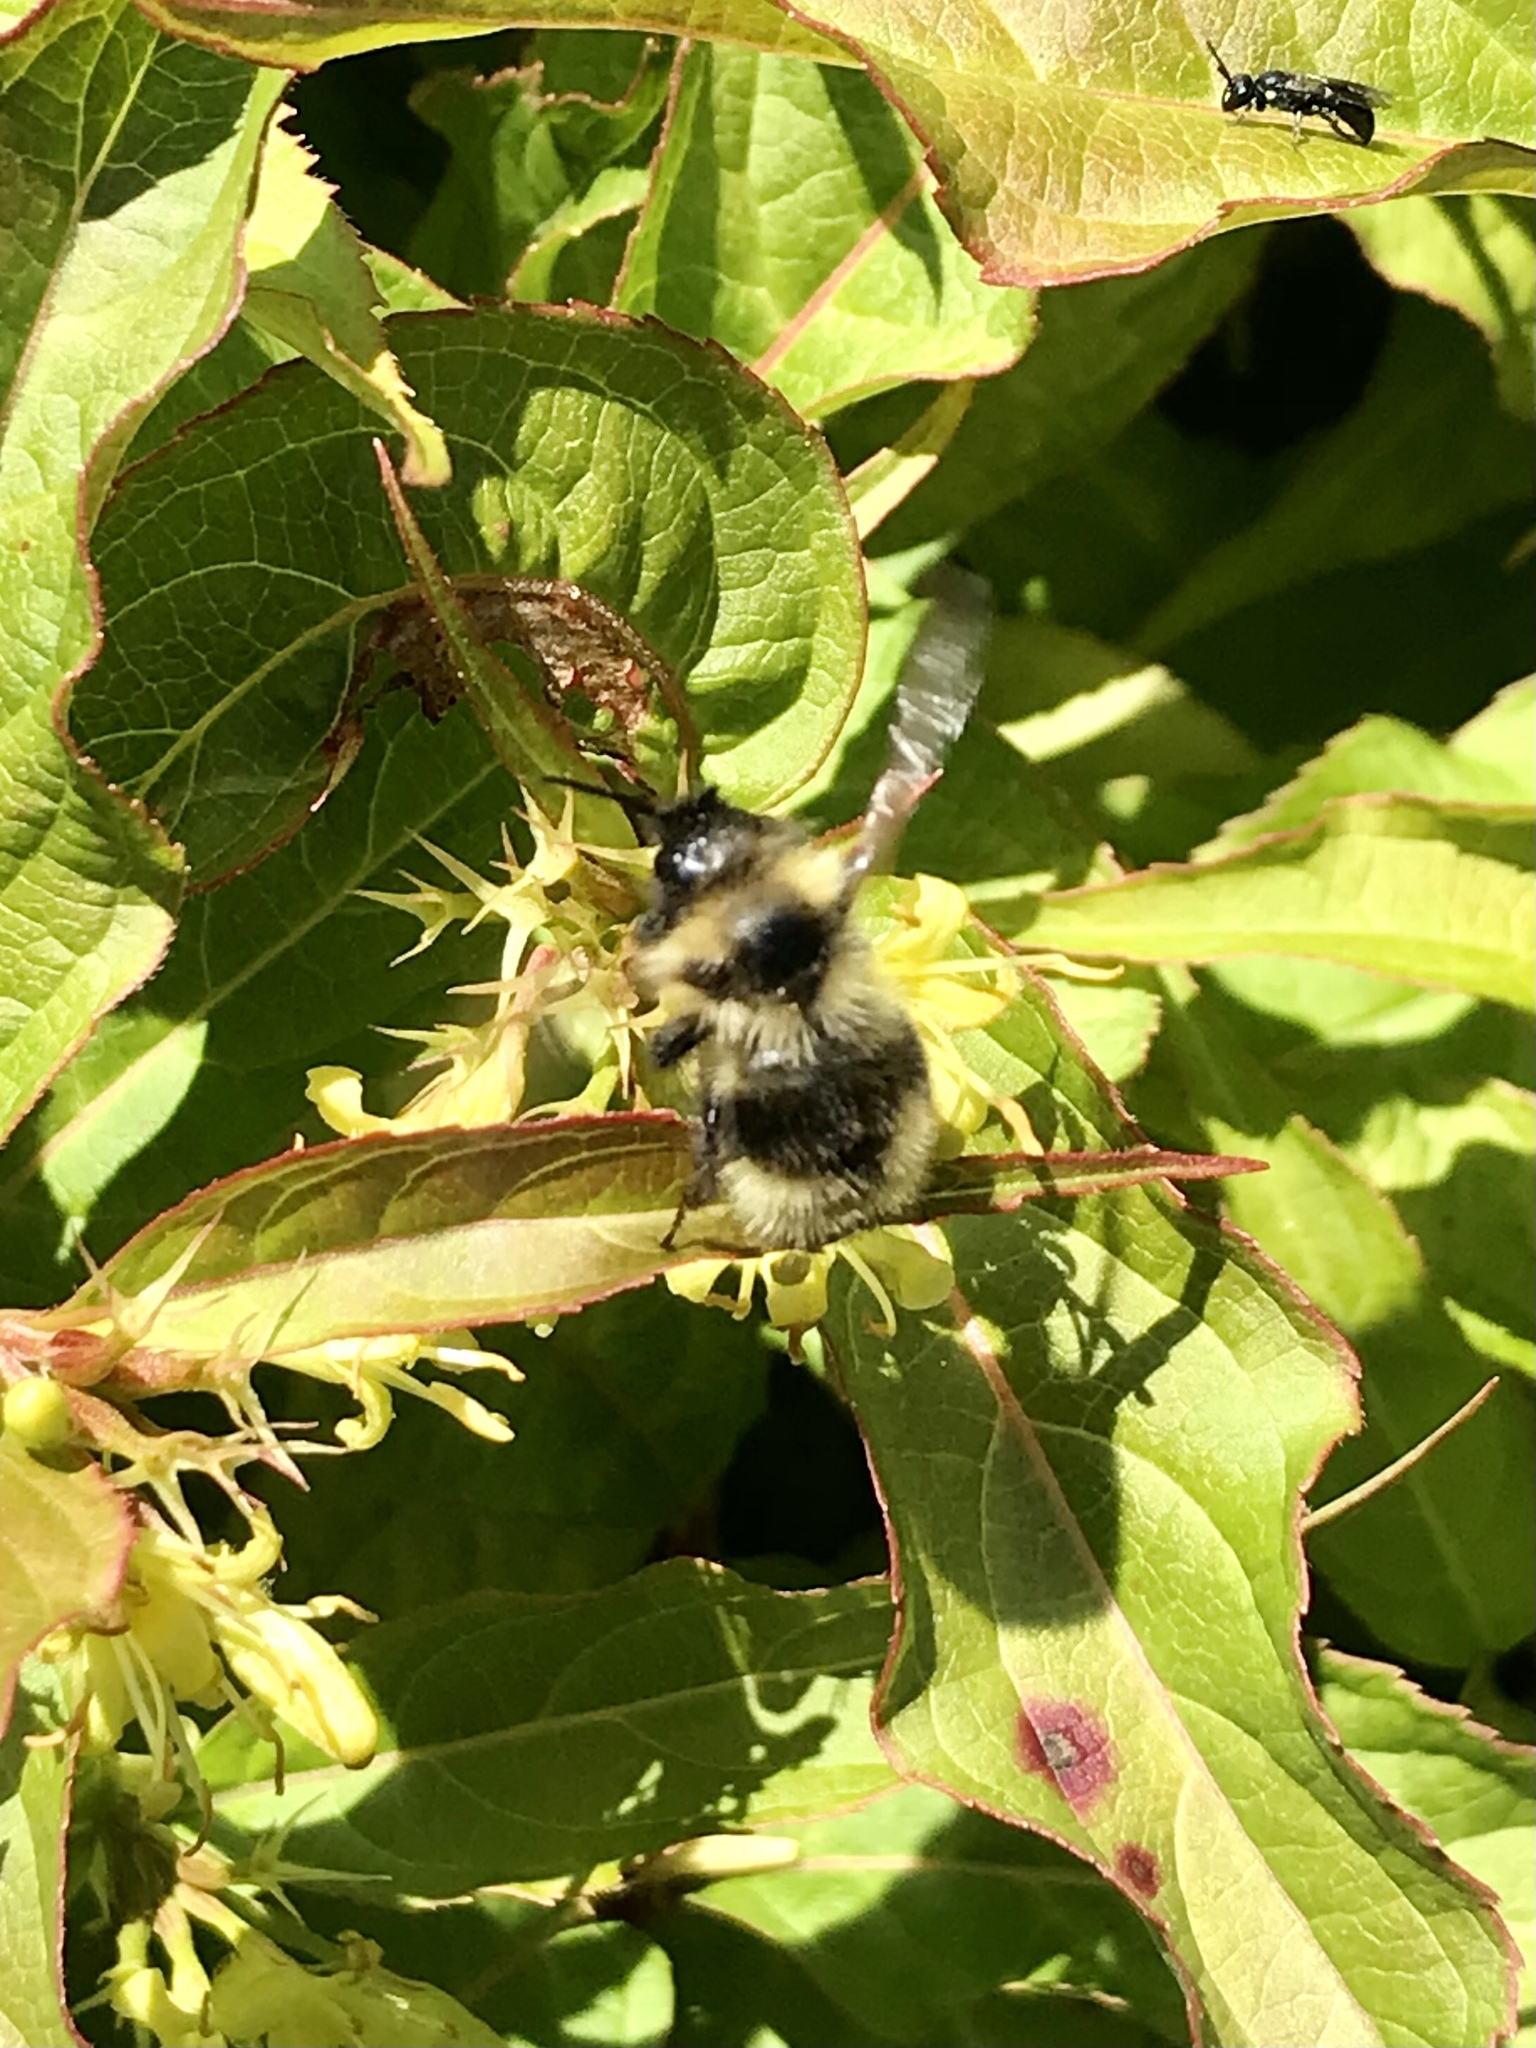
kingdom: Animalia
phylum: Arthropoda
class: Insecta
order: Hymenoptera
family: Apidae
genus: Bombus
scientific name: Bombus flavidus
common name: Fernald cuckoo bumble bee
